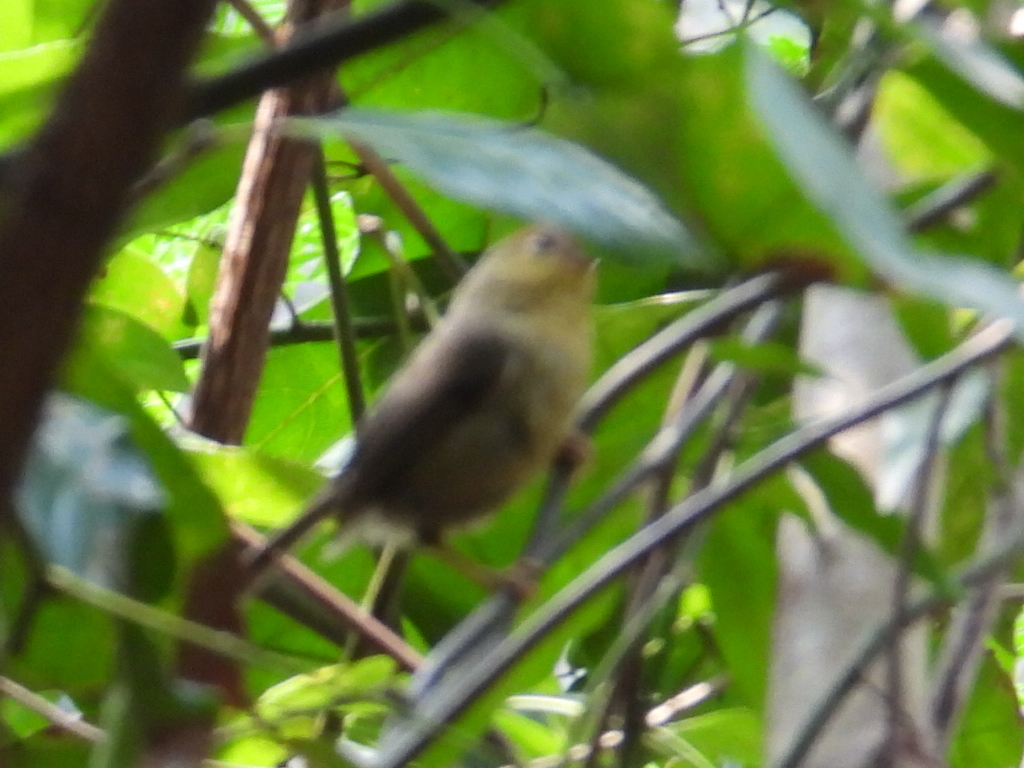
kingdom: Animalia
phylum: Chordata
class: Aves
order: Passeriformes
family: Timaliidae
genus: Stachyridopsis
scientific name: Stachyridopsis ruficeps
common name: Rufous-capped babbler
